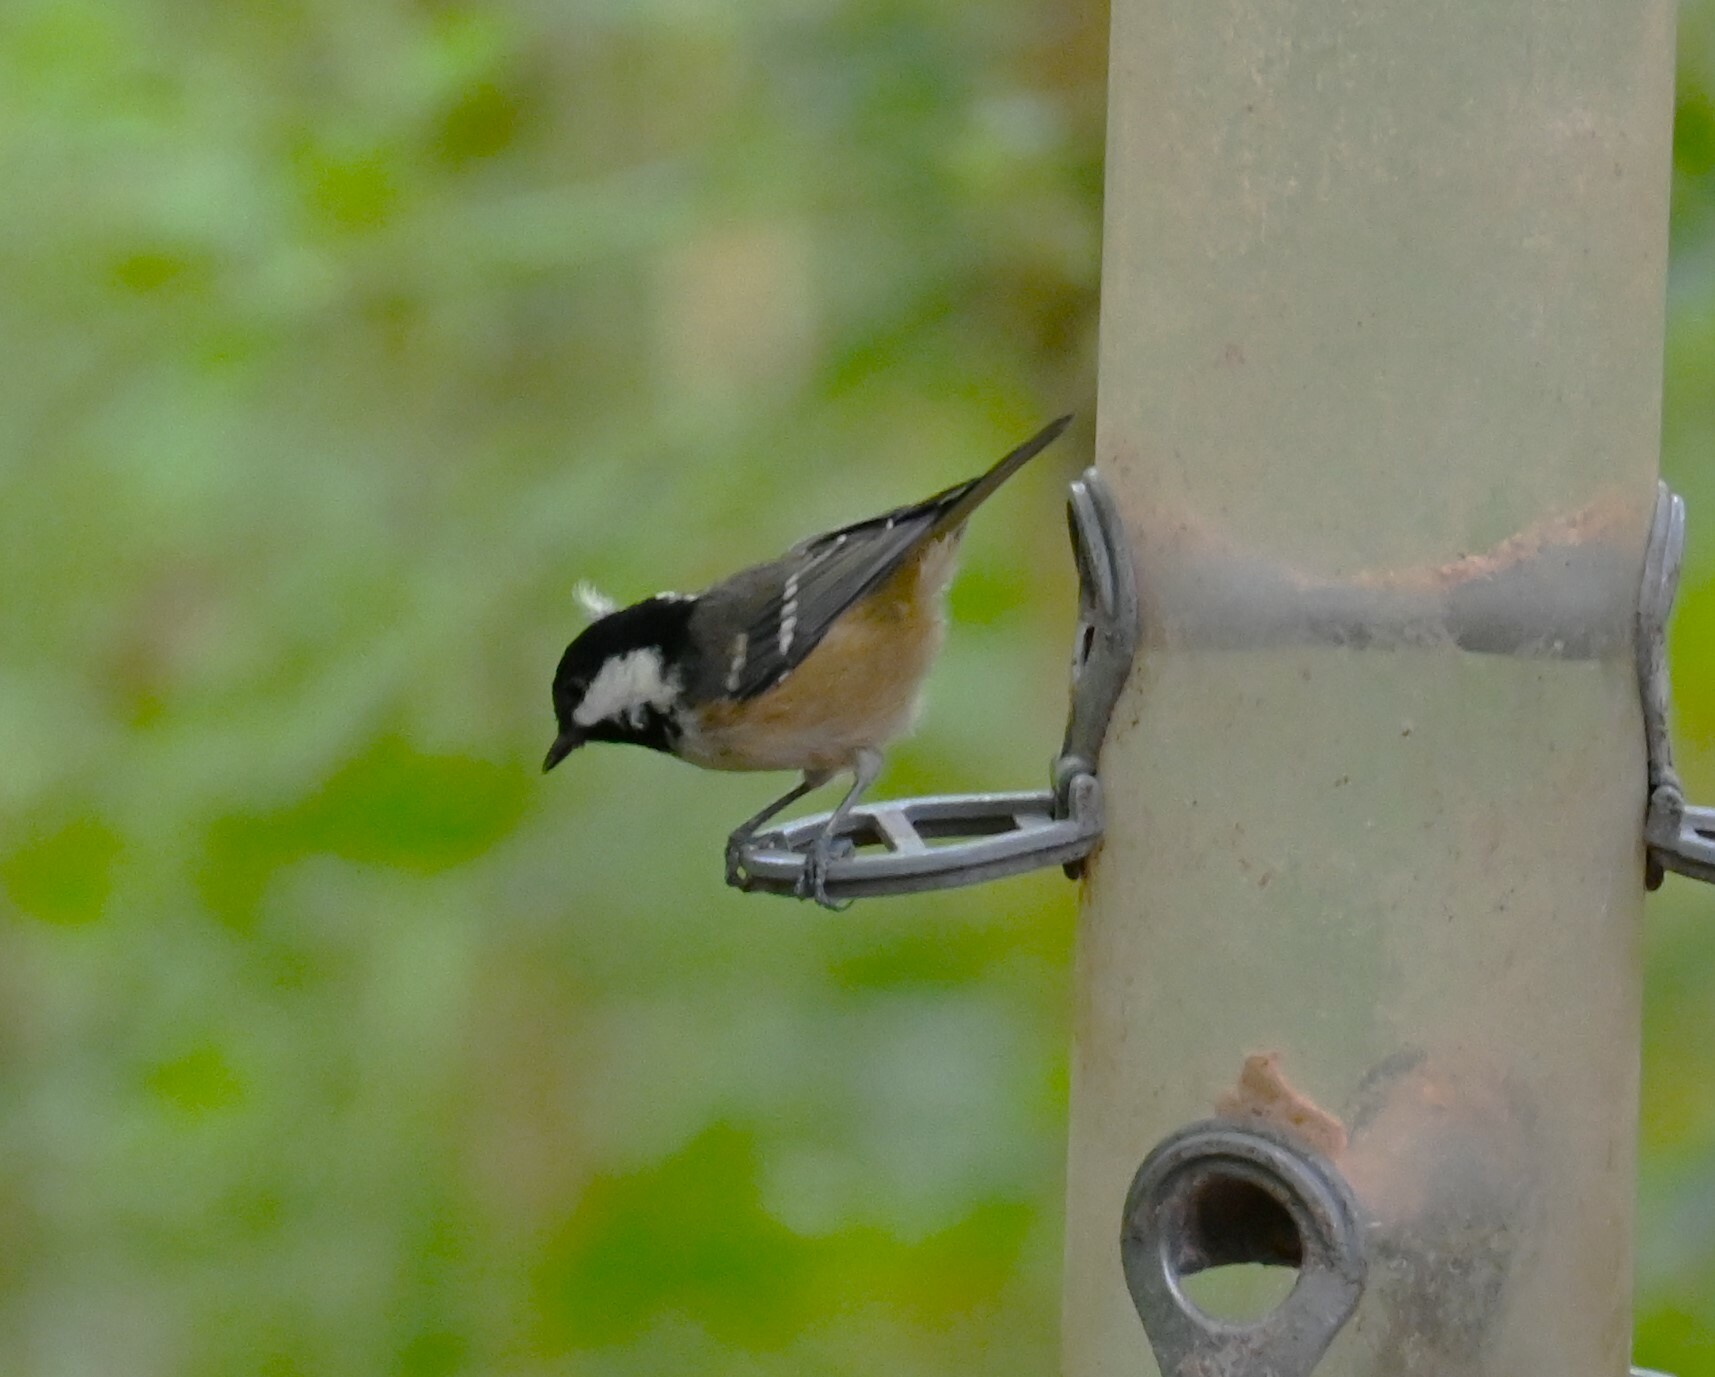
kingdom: Animalia
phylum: Chordata
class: Aves
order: Passeriformes
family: Paridae
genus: Periparus
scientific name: Periparus ater
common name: Coal tit
